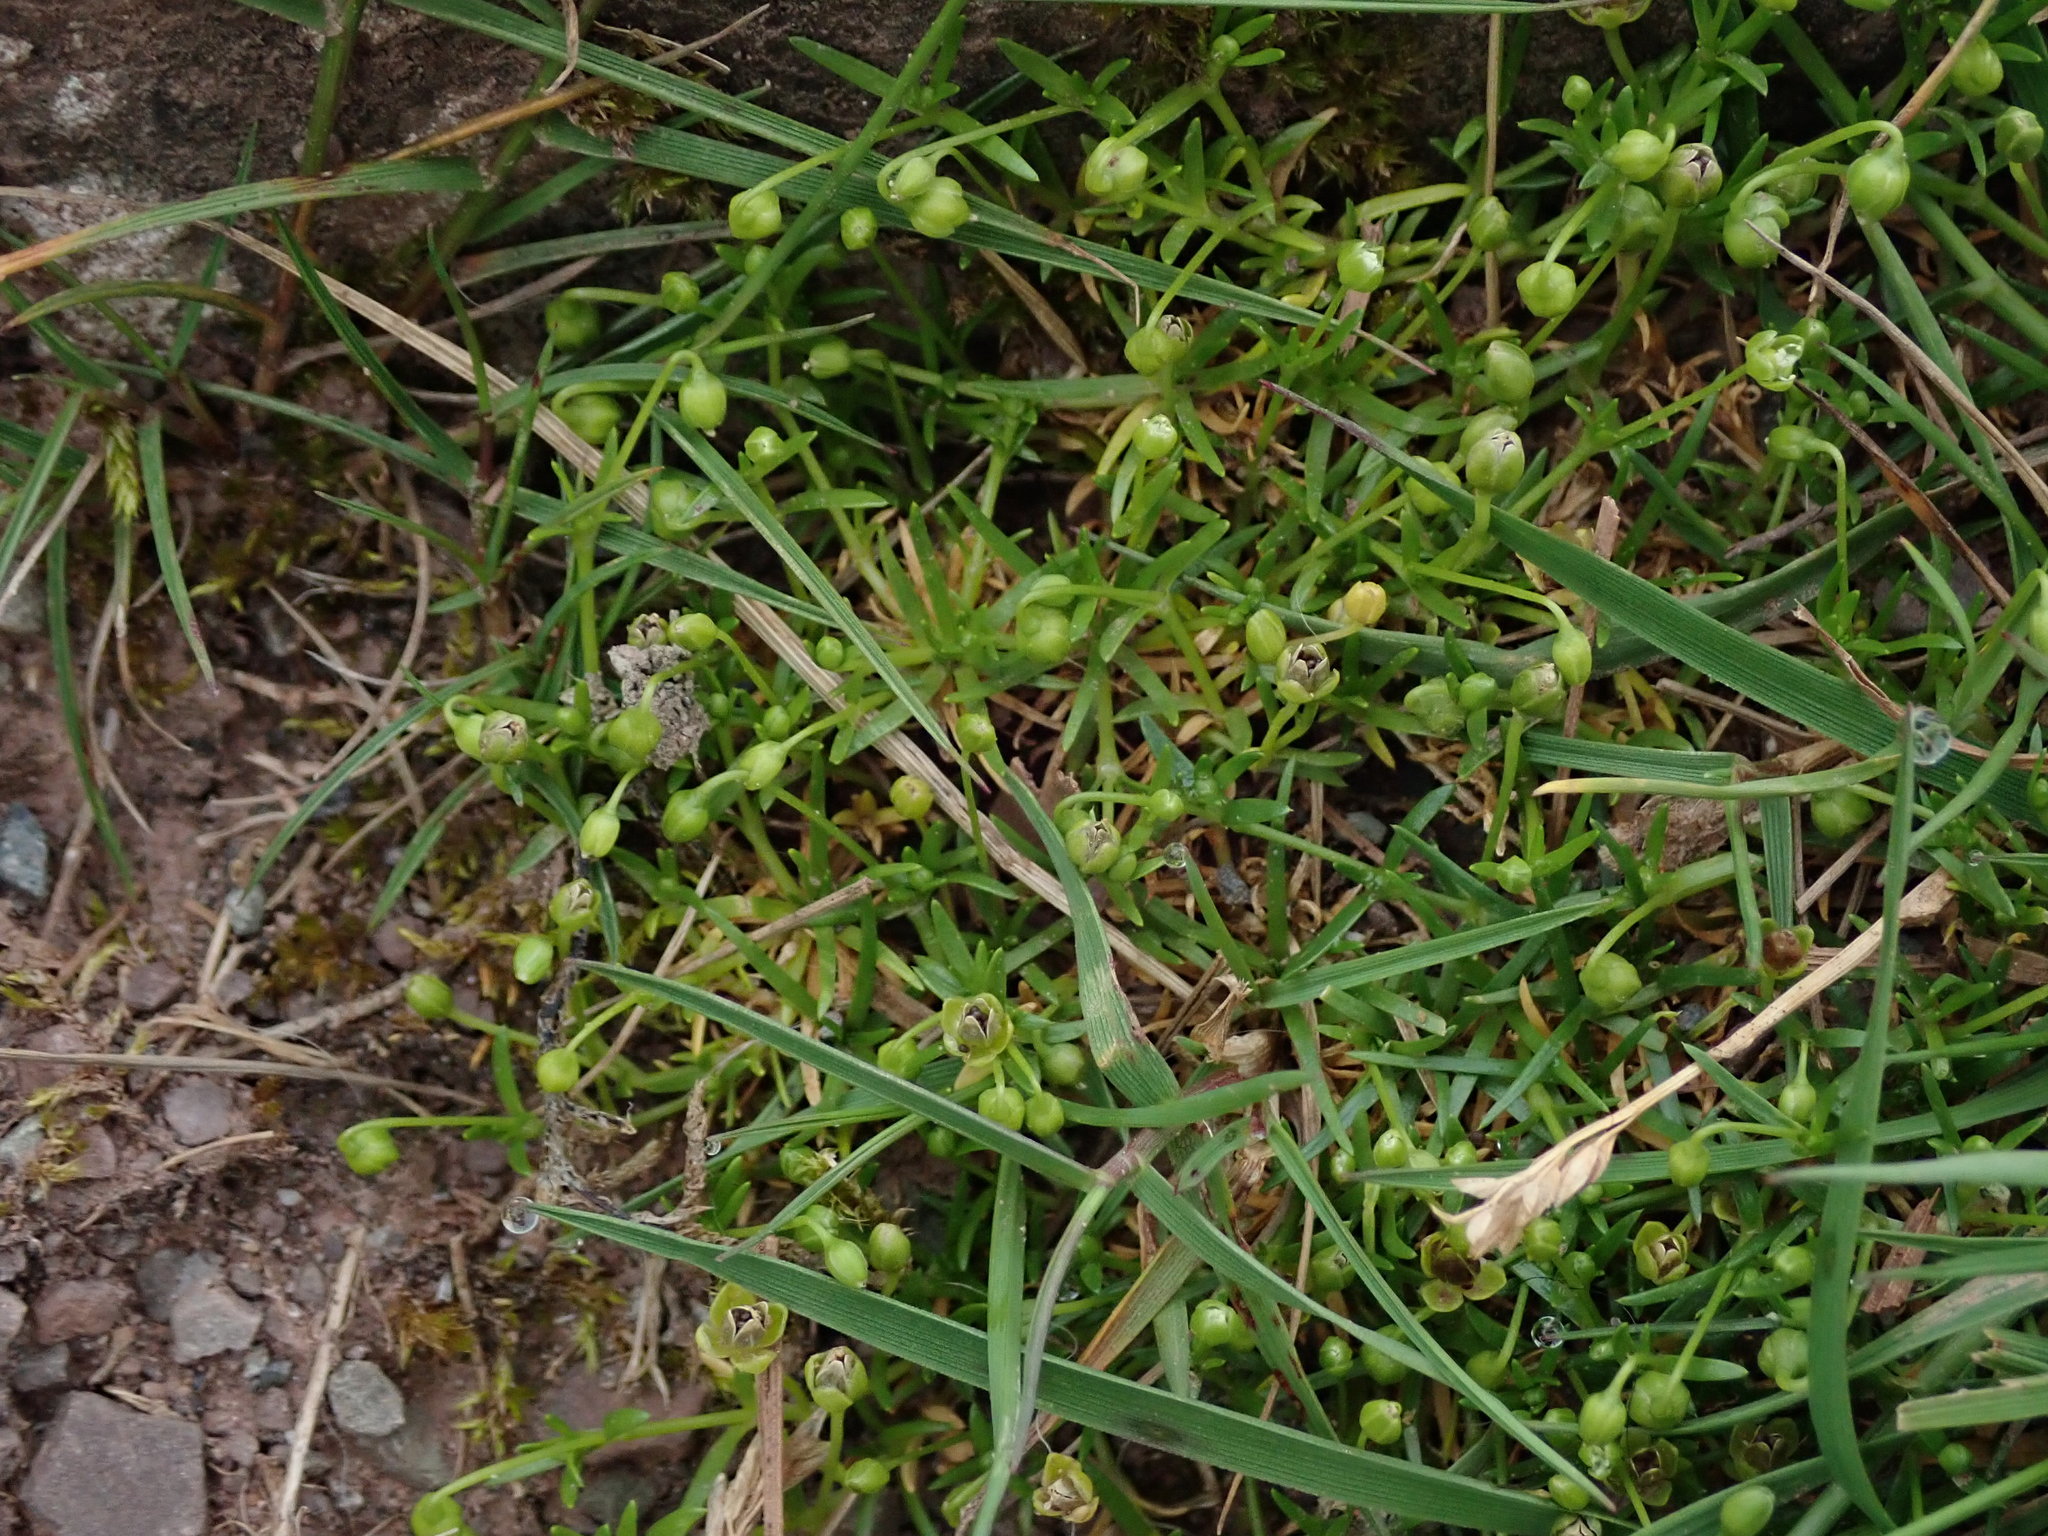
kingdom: Plantae
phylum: Tracheophyta
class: Magnoliopsida
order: Caryophyllales
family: Caryophyllaceae
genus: Sagina
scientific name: Sagina procumbens
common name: Procumbent pearlwort
